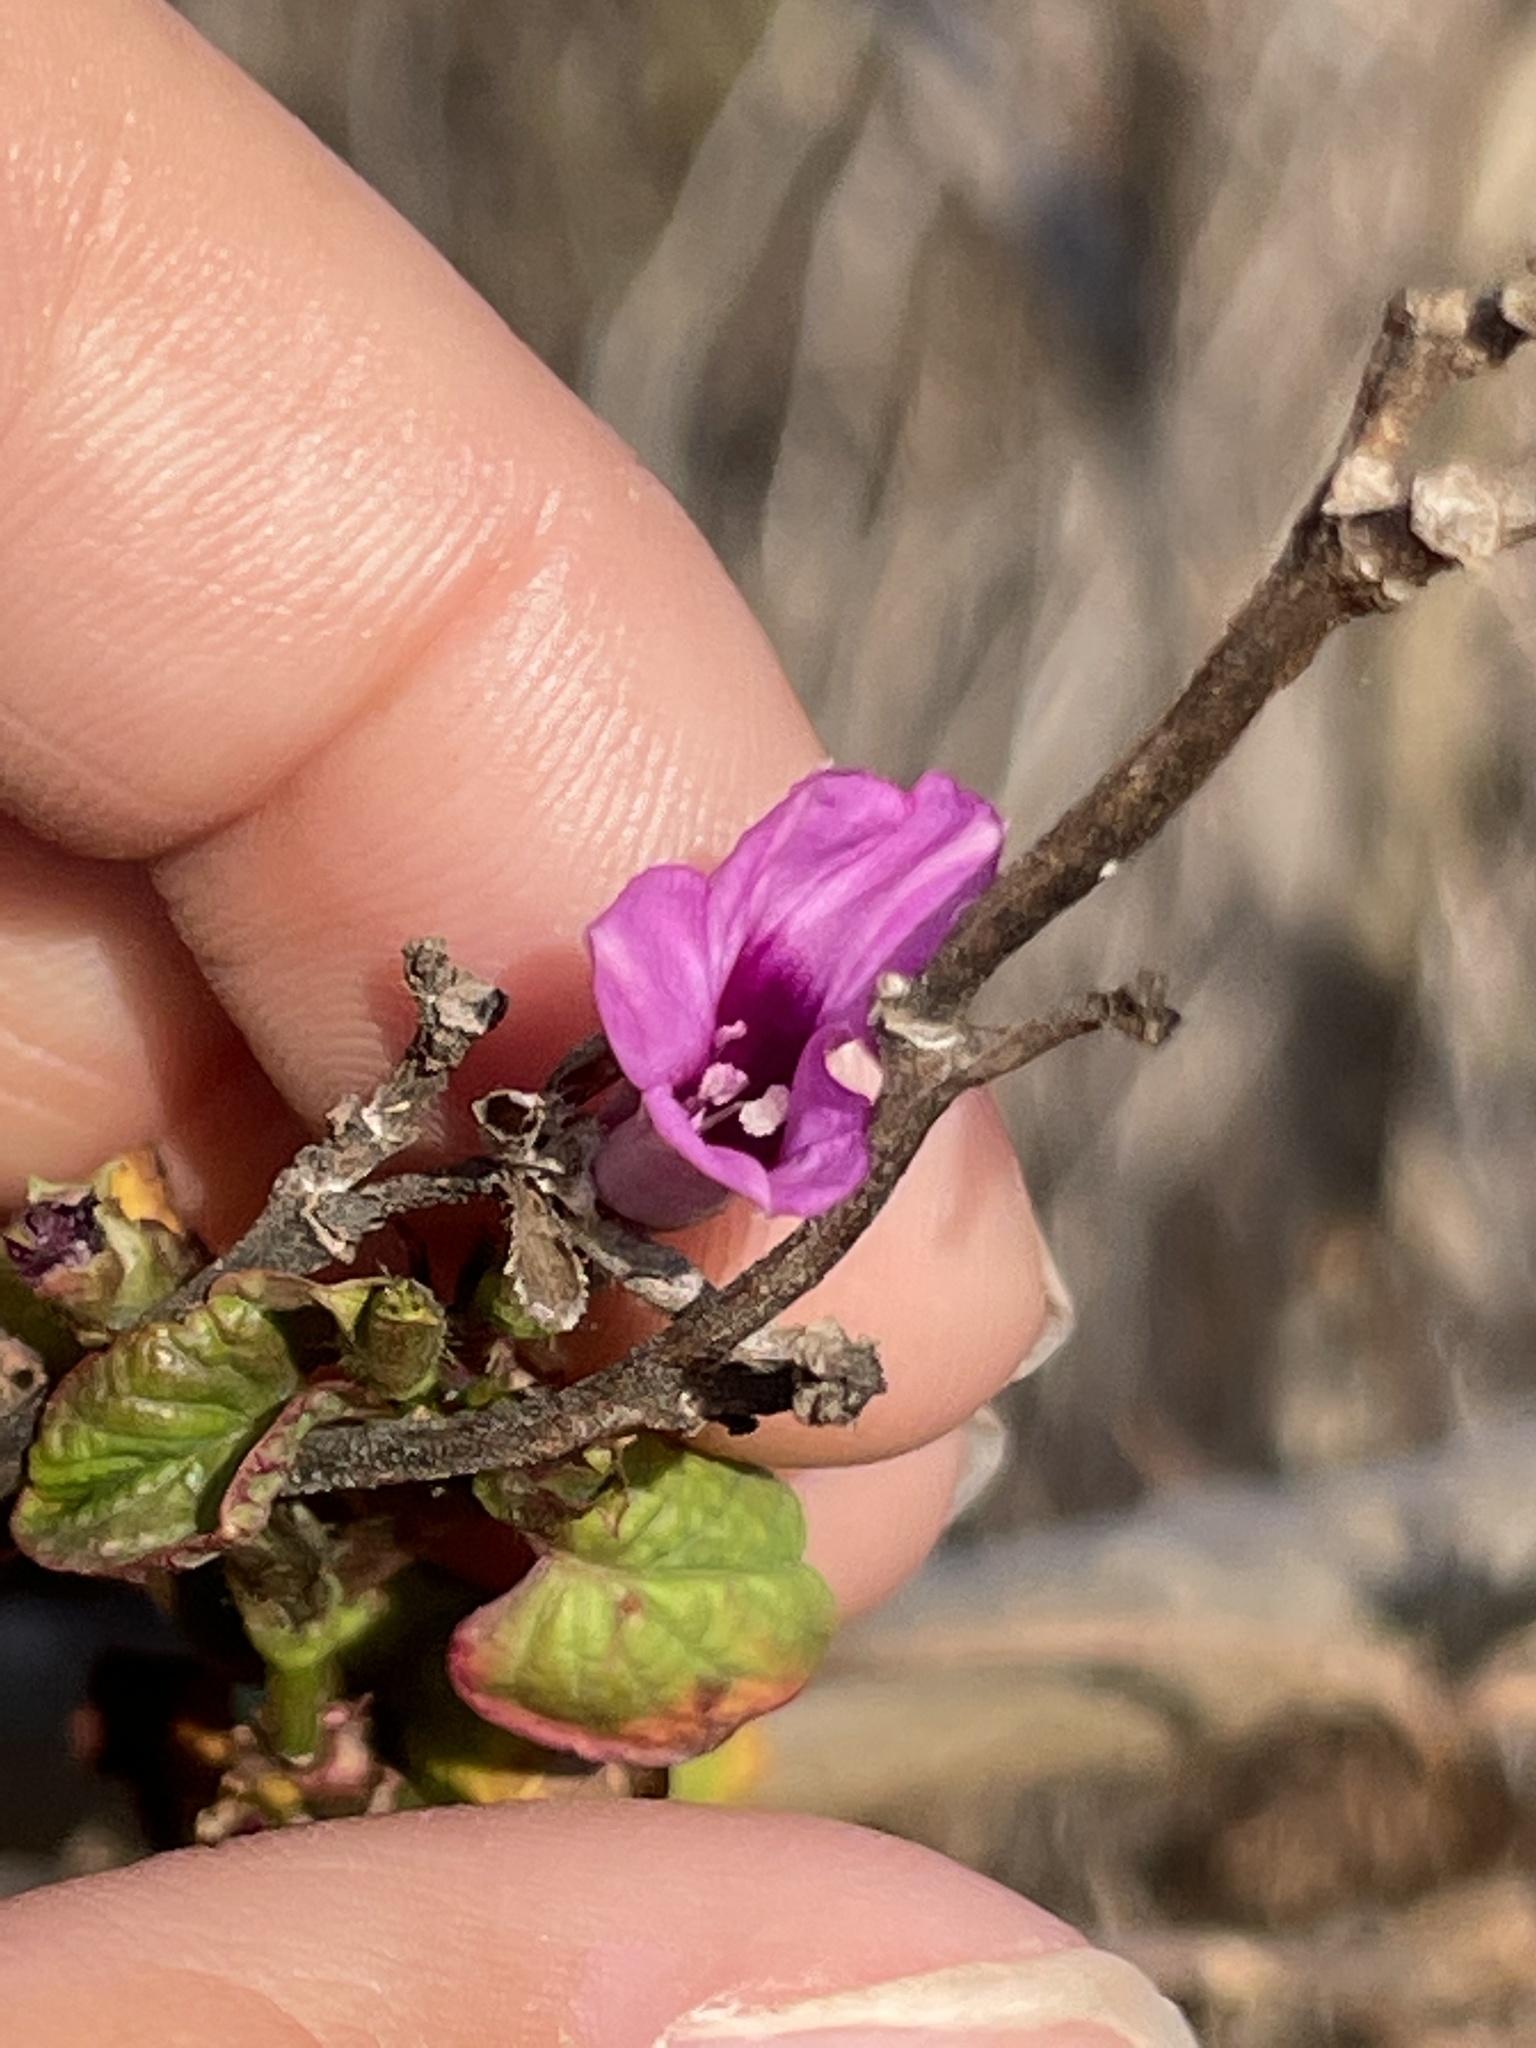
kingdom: Plantae
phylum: Tracheophyta
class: Magnoliopsida
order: Solanales
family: Convolvulaceae
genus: Ipomoea
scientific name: Ipomoea triloba
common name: Little-bell
